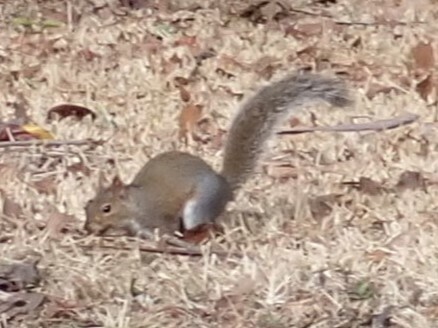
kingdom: Animalia
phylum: Chordata
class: Mammalia
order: Rodentia
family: Sciuridae
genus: Sciurus
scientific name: Sciurus carolinensis
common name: Eastern gray squirrel
